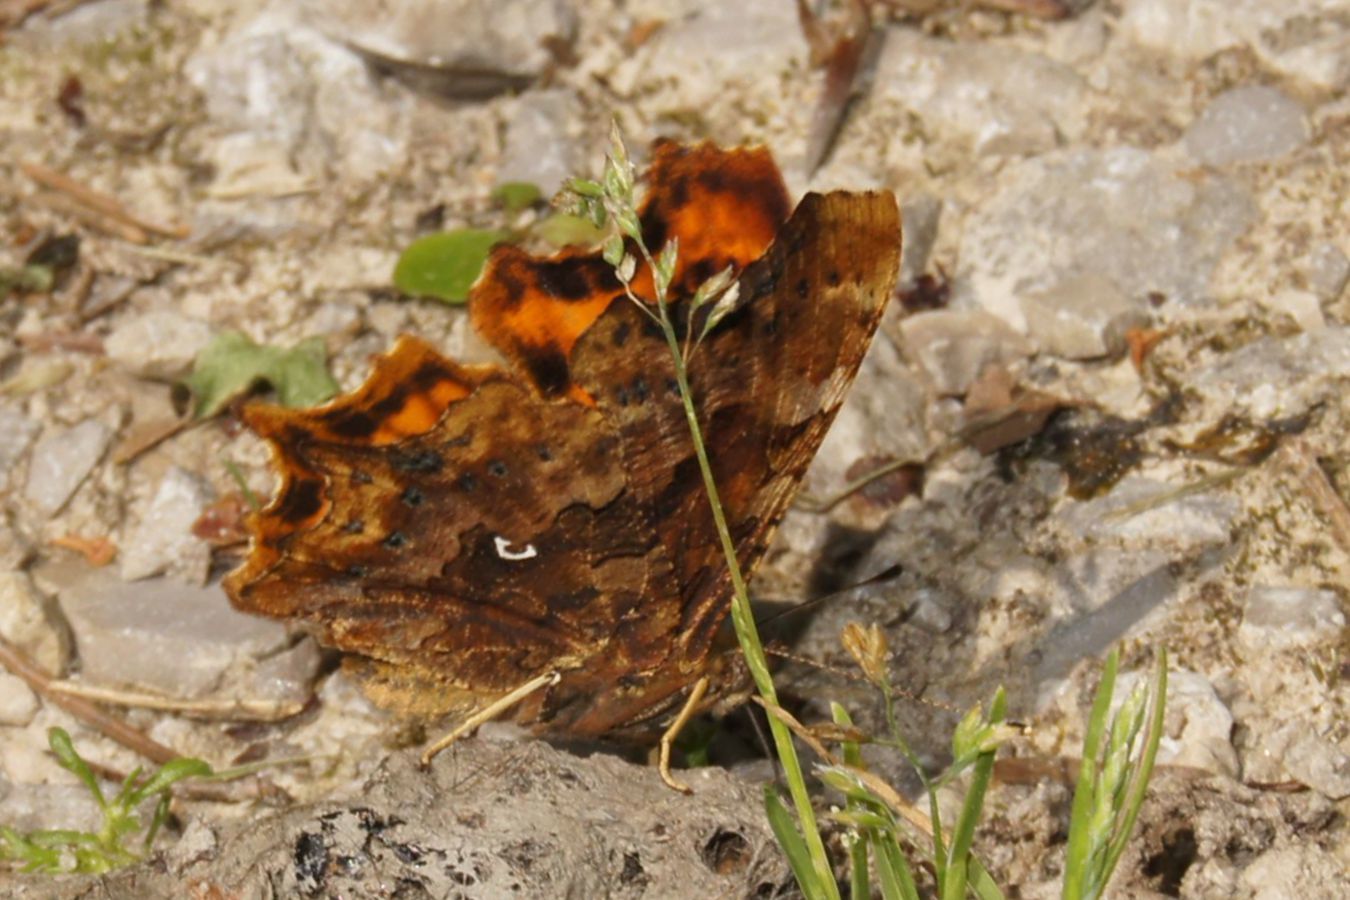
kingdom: Animalia
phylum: Arthropoda
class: Insecta
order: Lepidoptera
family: Nymphalidae
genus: Polygonia
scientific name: Polygonia c-album
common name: Comma
